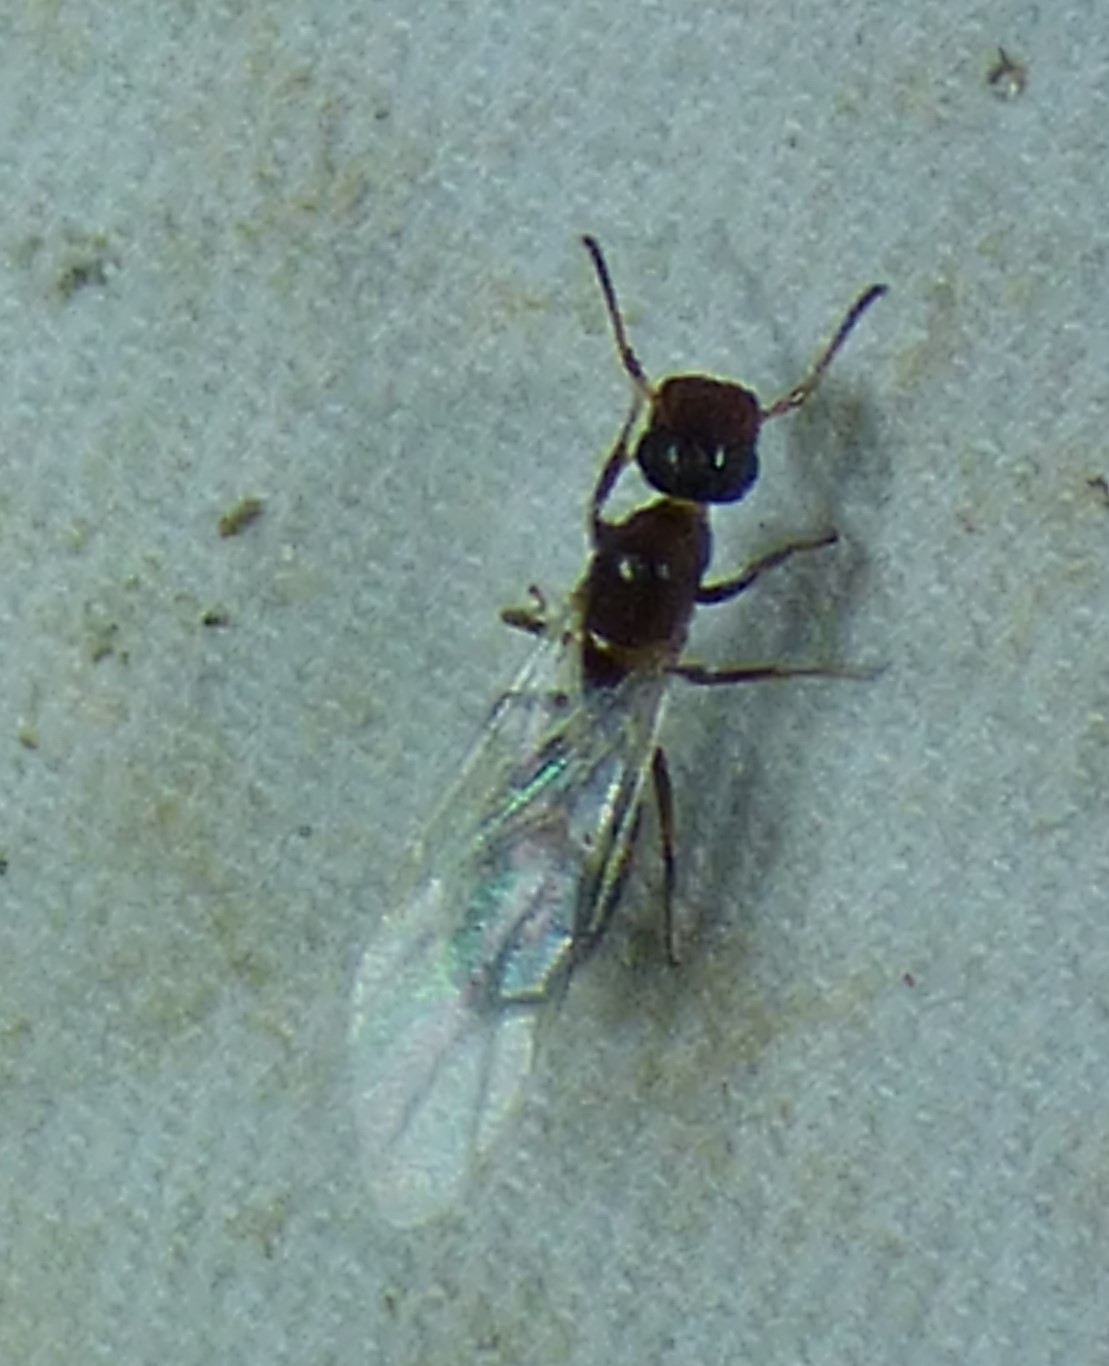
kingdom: Animalia
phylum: Arthropoda
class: Insecta
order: Hymenoptera
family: Formicidae
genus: Colobopsis
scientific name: Colobopsis
